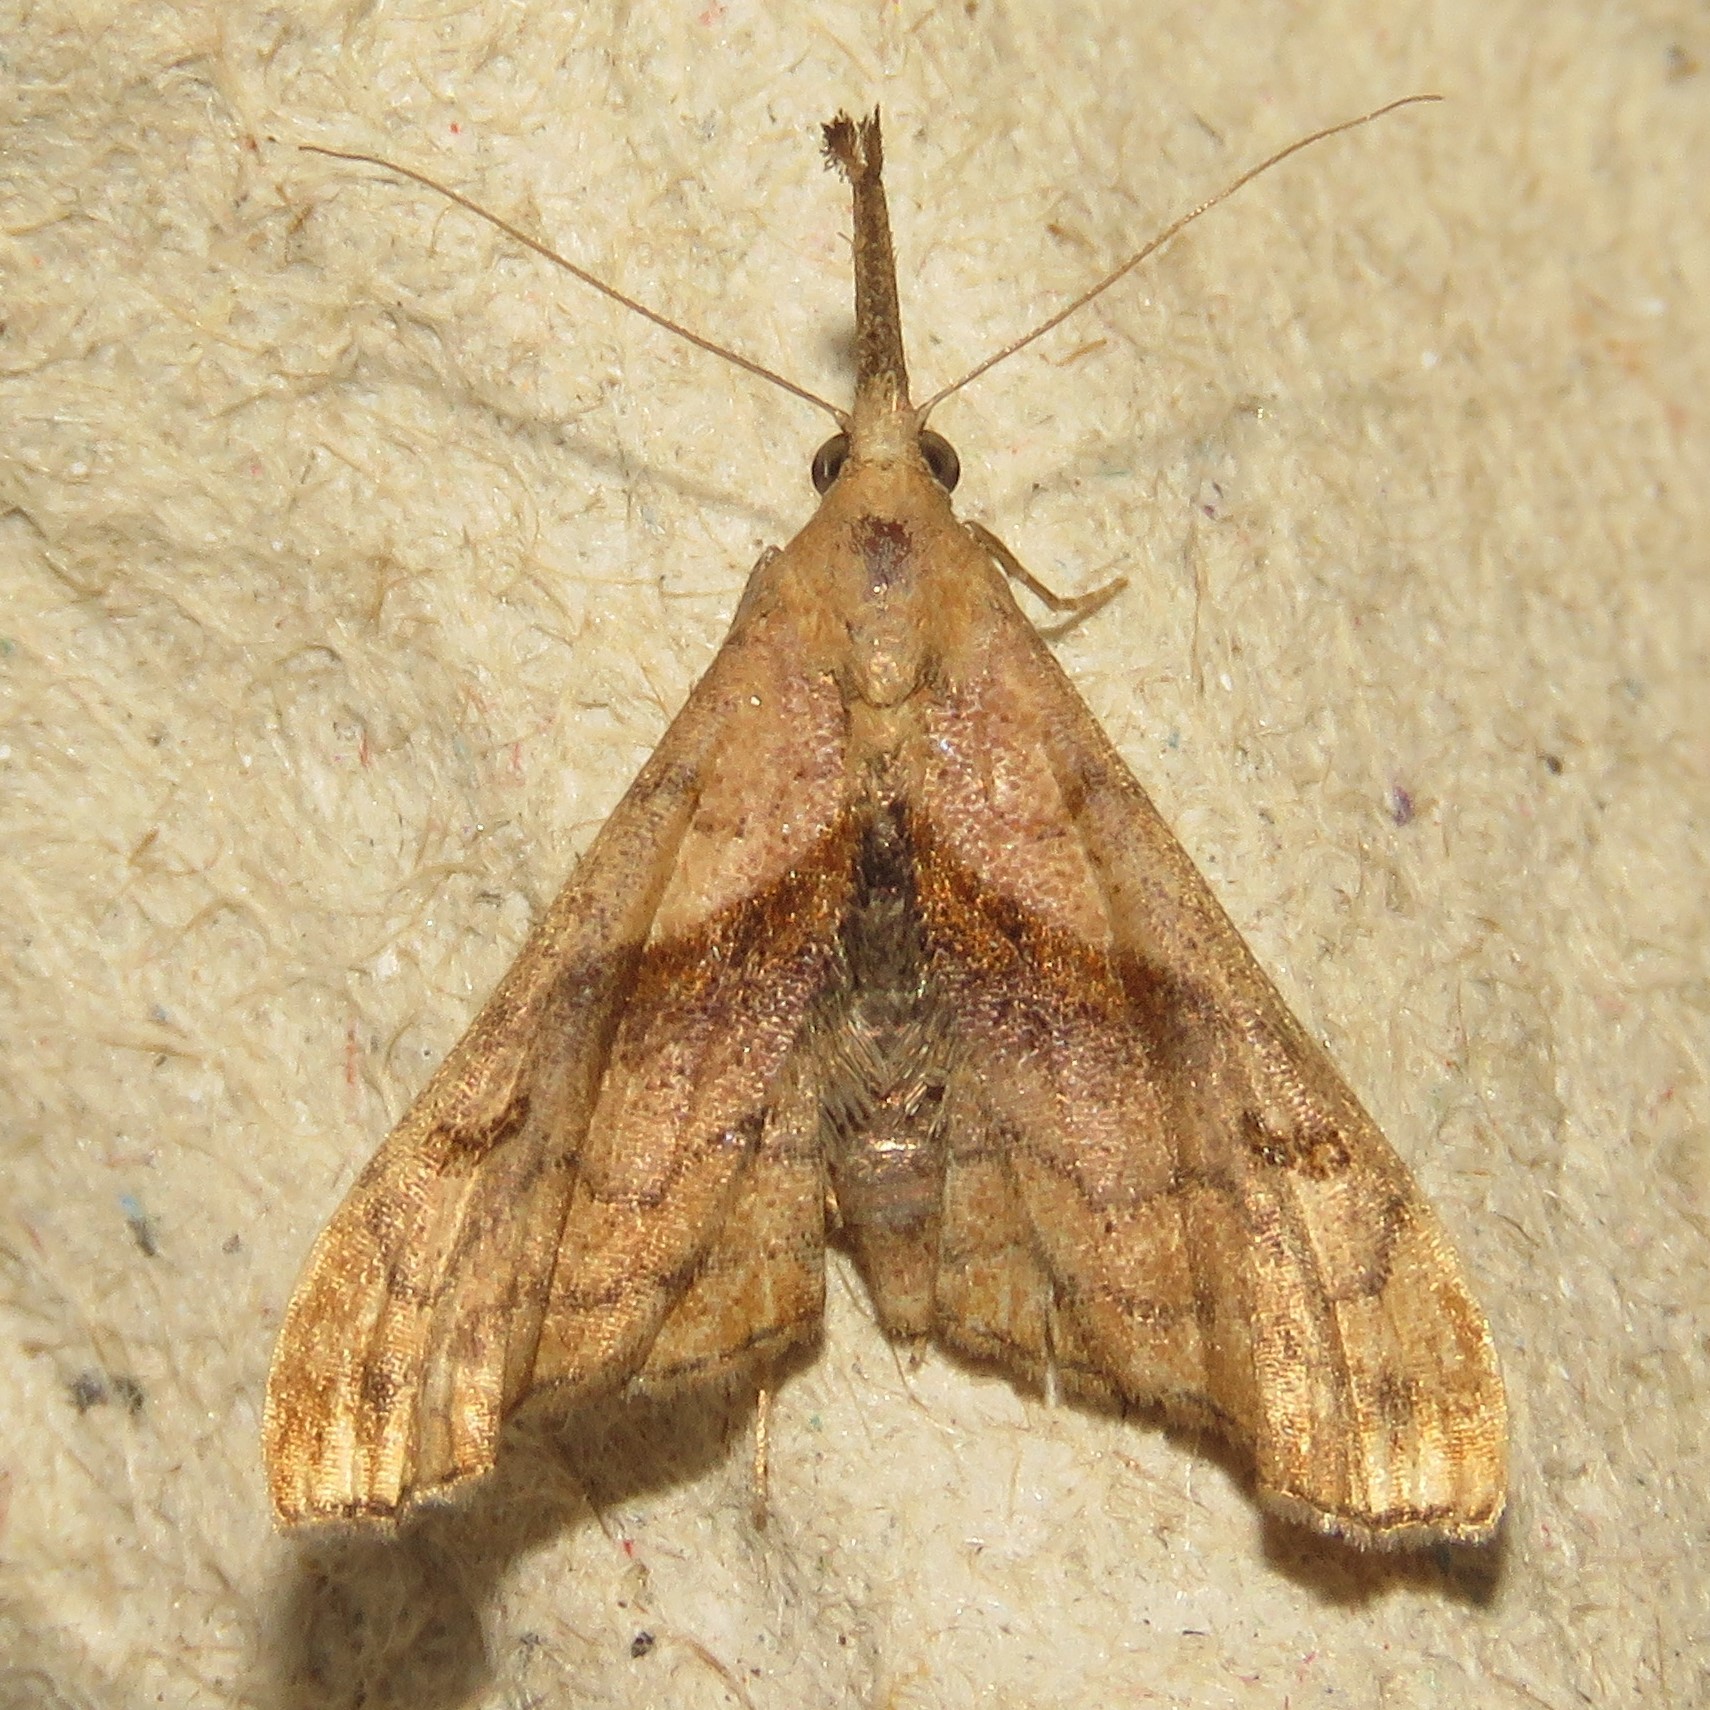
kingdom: Animalia
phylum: Arthropoda
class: Insecta
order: Lepidoptera
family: Erebidae
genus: Palthis
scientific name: Palthis angulalis
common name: Dark-spotted palthis moth
